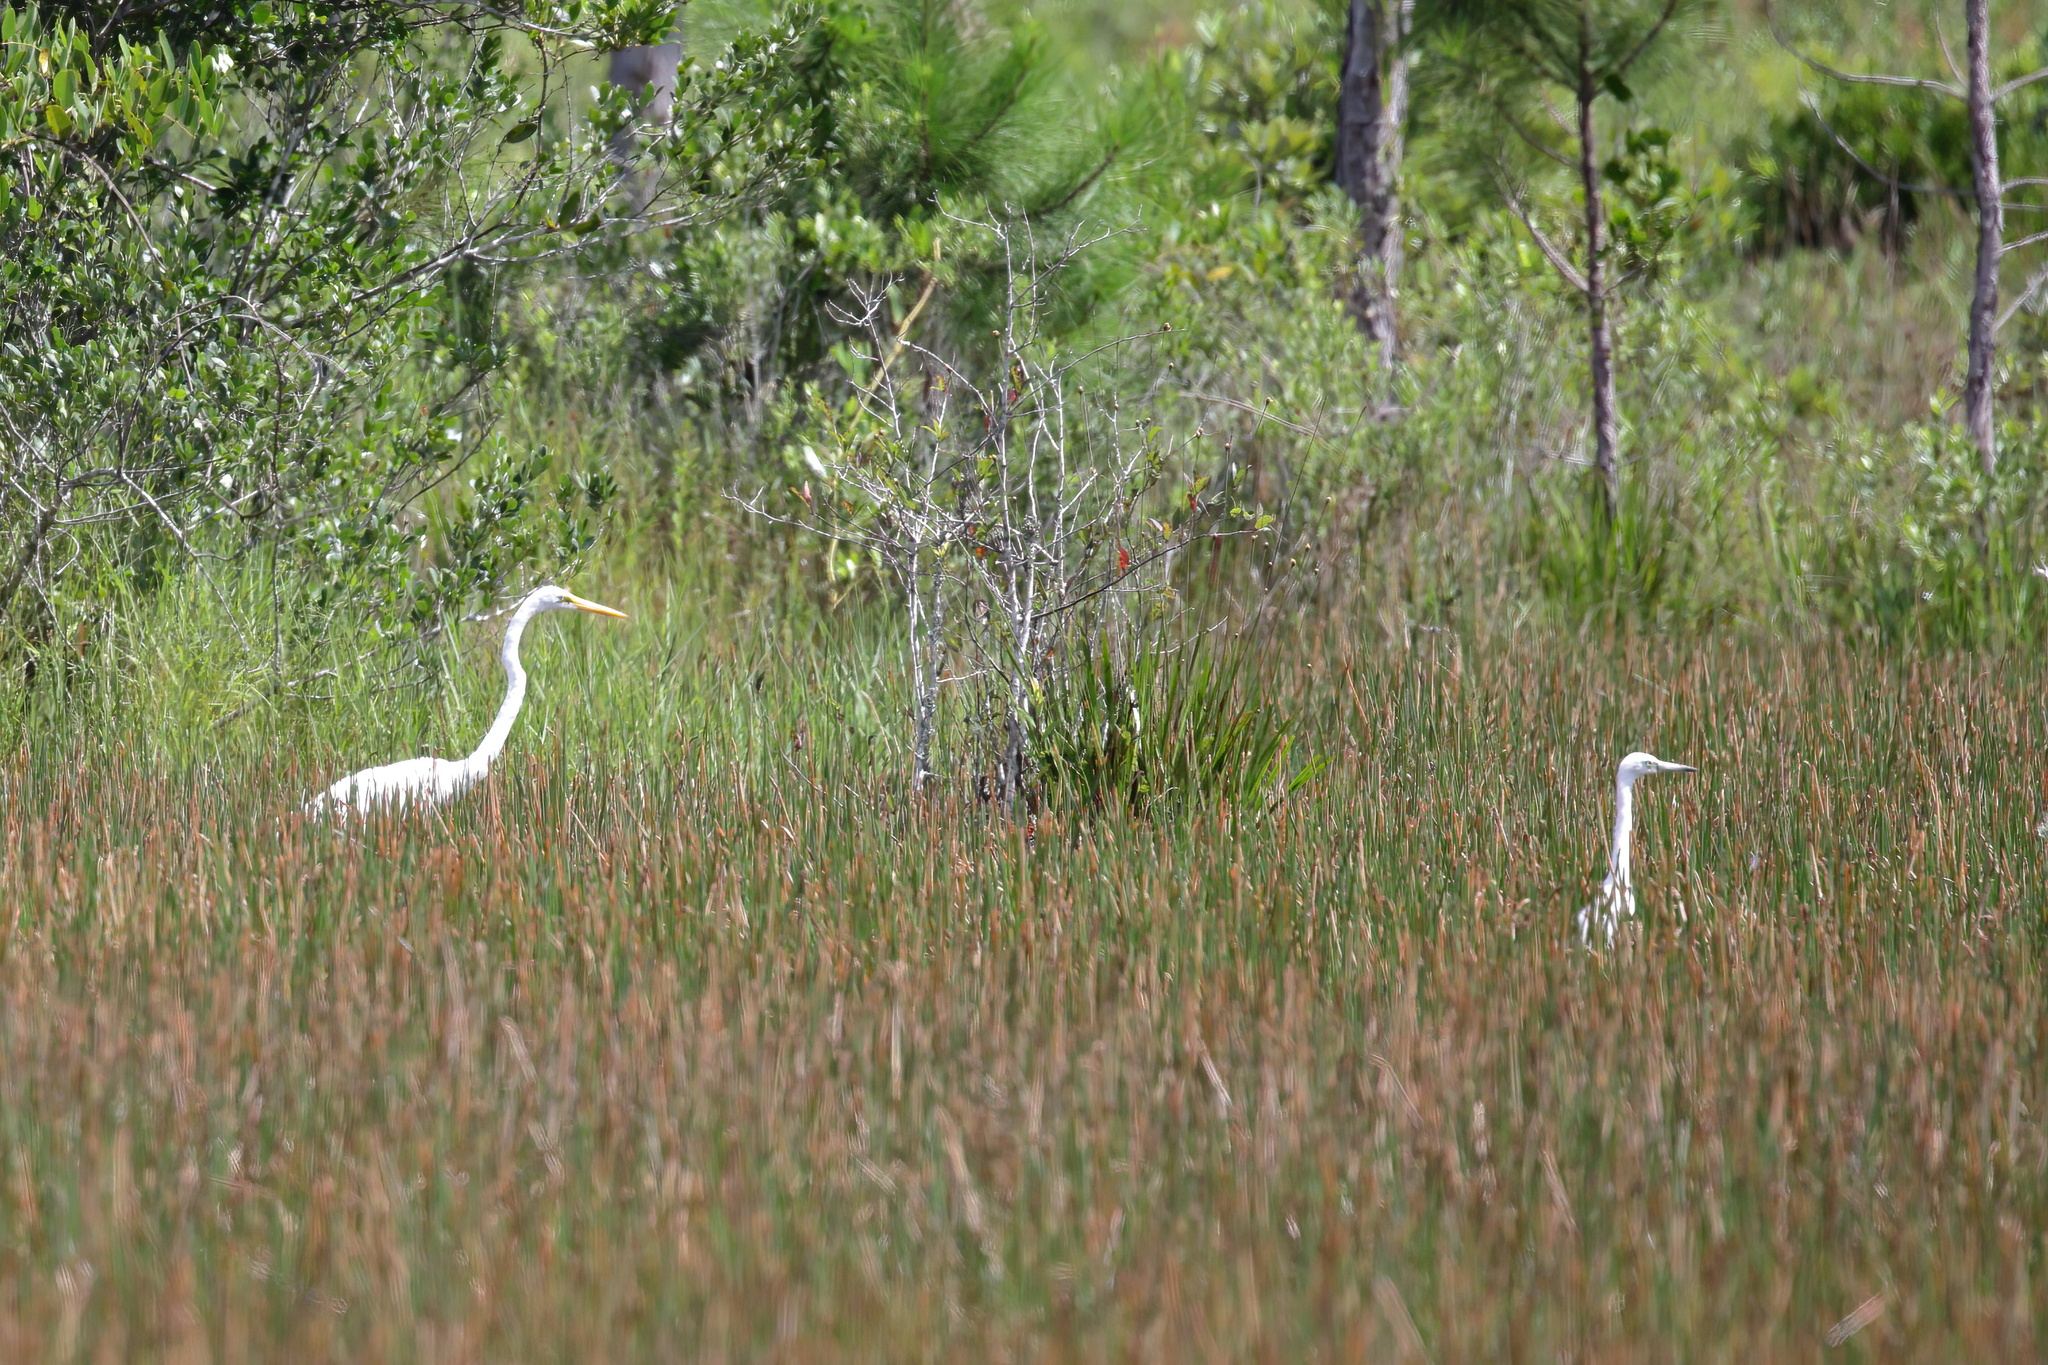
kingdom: Animalia
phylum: Chordata
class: Aves
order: Pelecaniformes
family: Ardeidae
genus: Ardea
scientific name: Ardea alba
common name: Great egret
